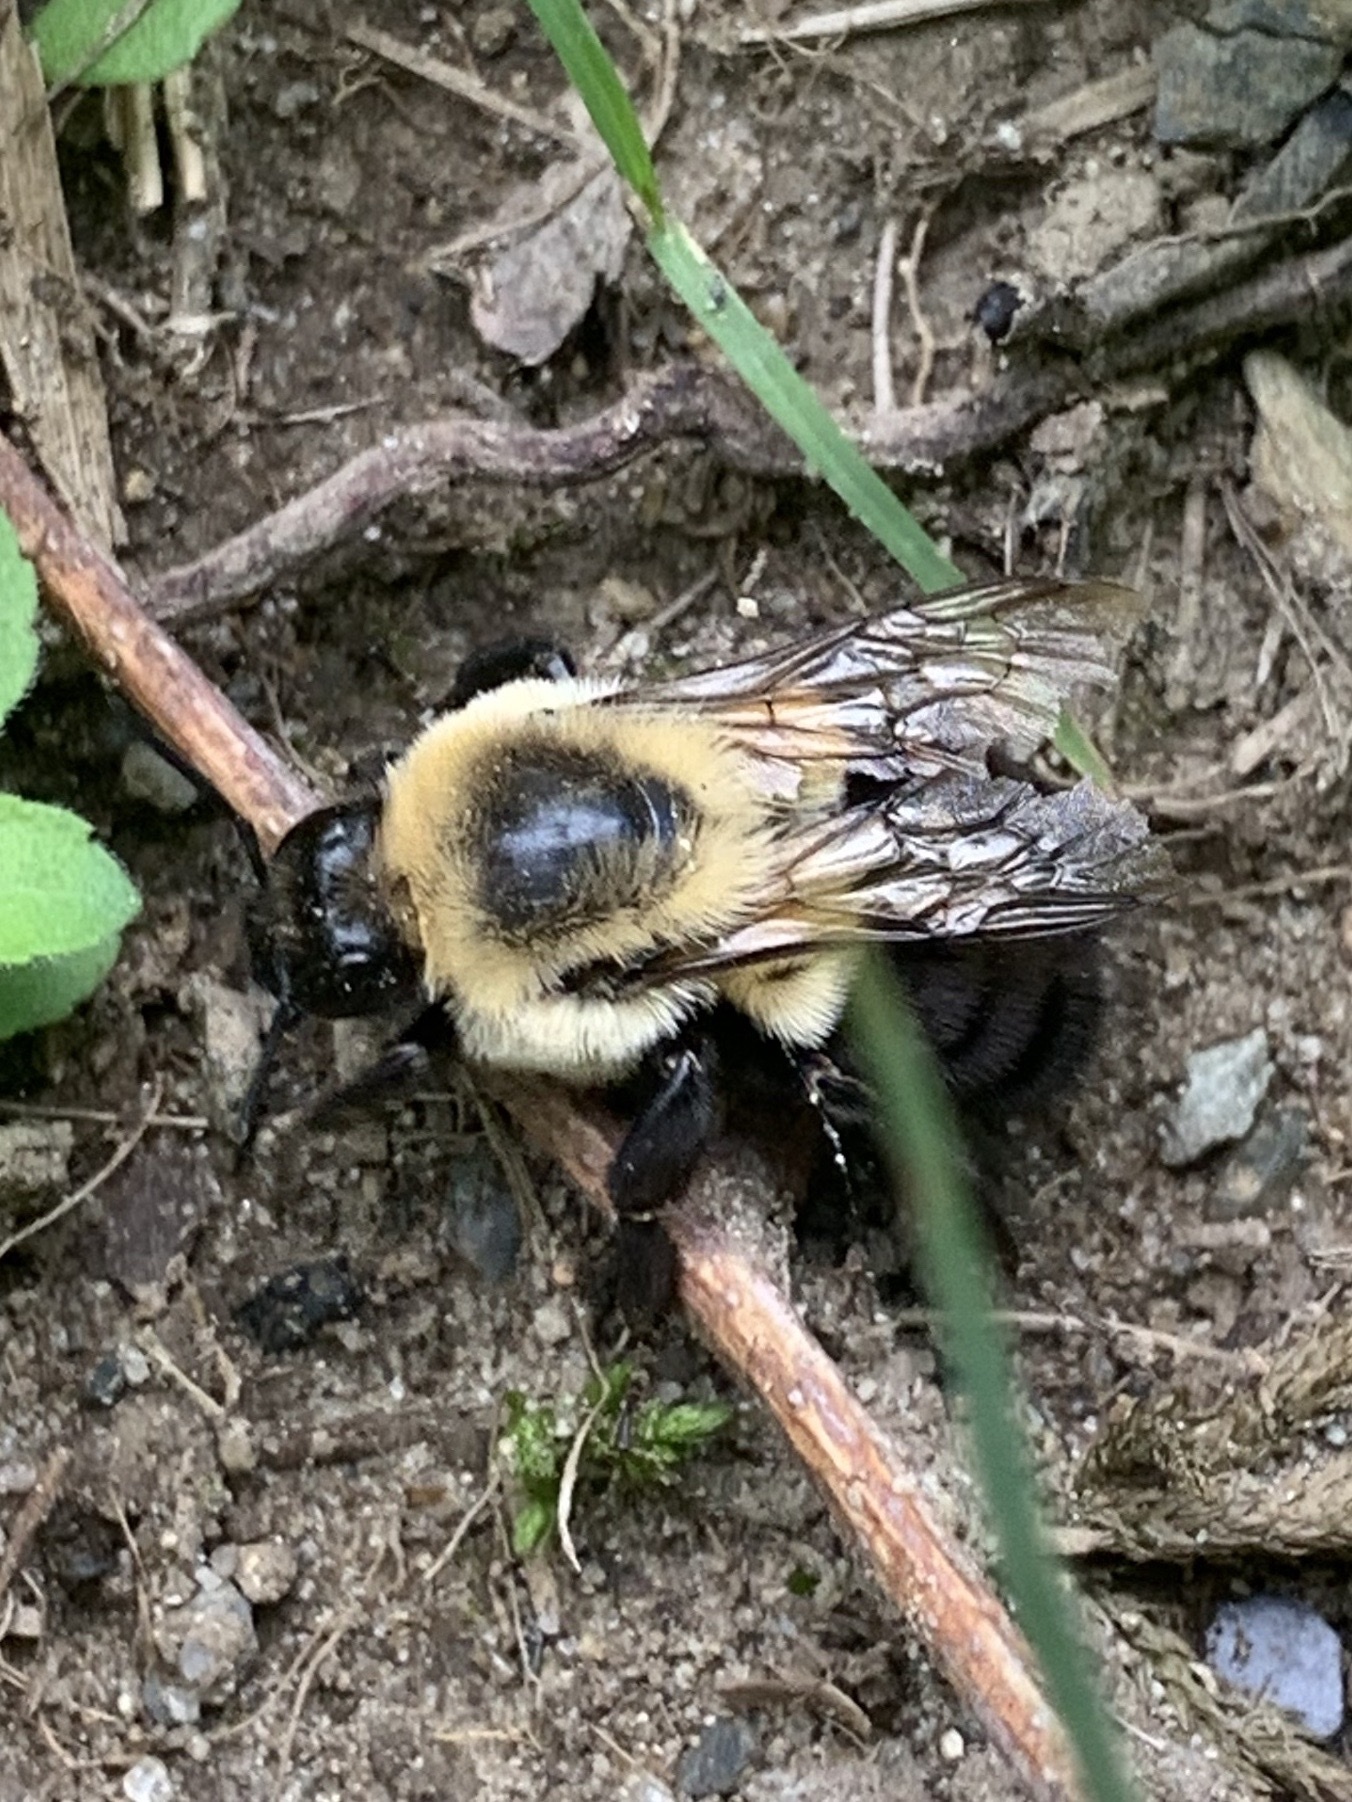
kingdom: Animalia
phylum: Arthropoda
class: Insecta
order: Hymenoptera
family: Apidae
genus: Bombus
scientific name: Bombus impatiens
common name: Common eastern bumble bee
